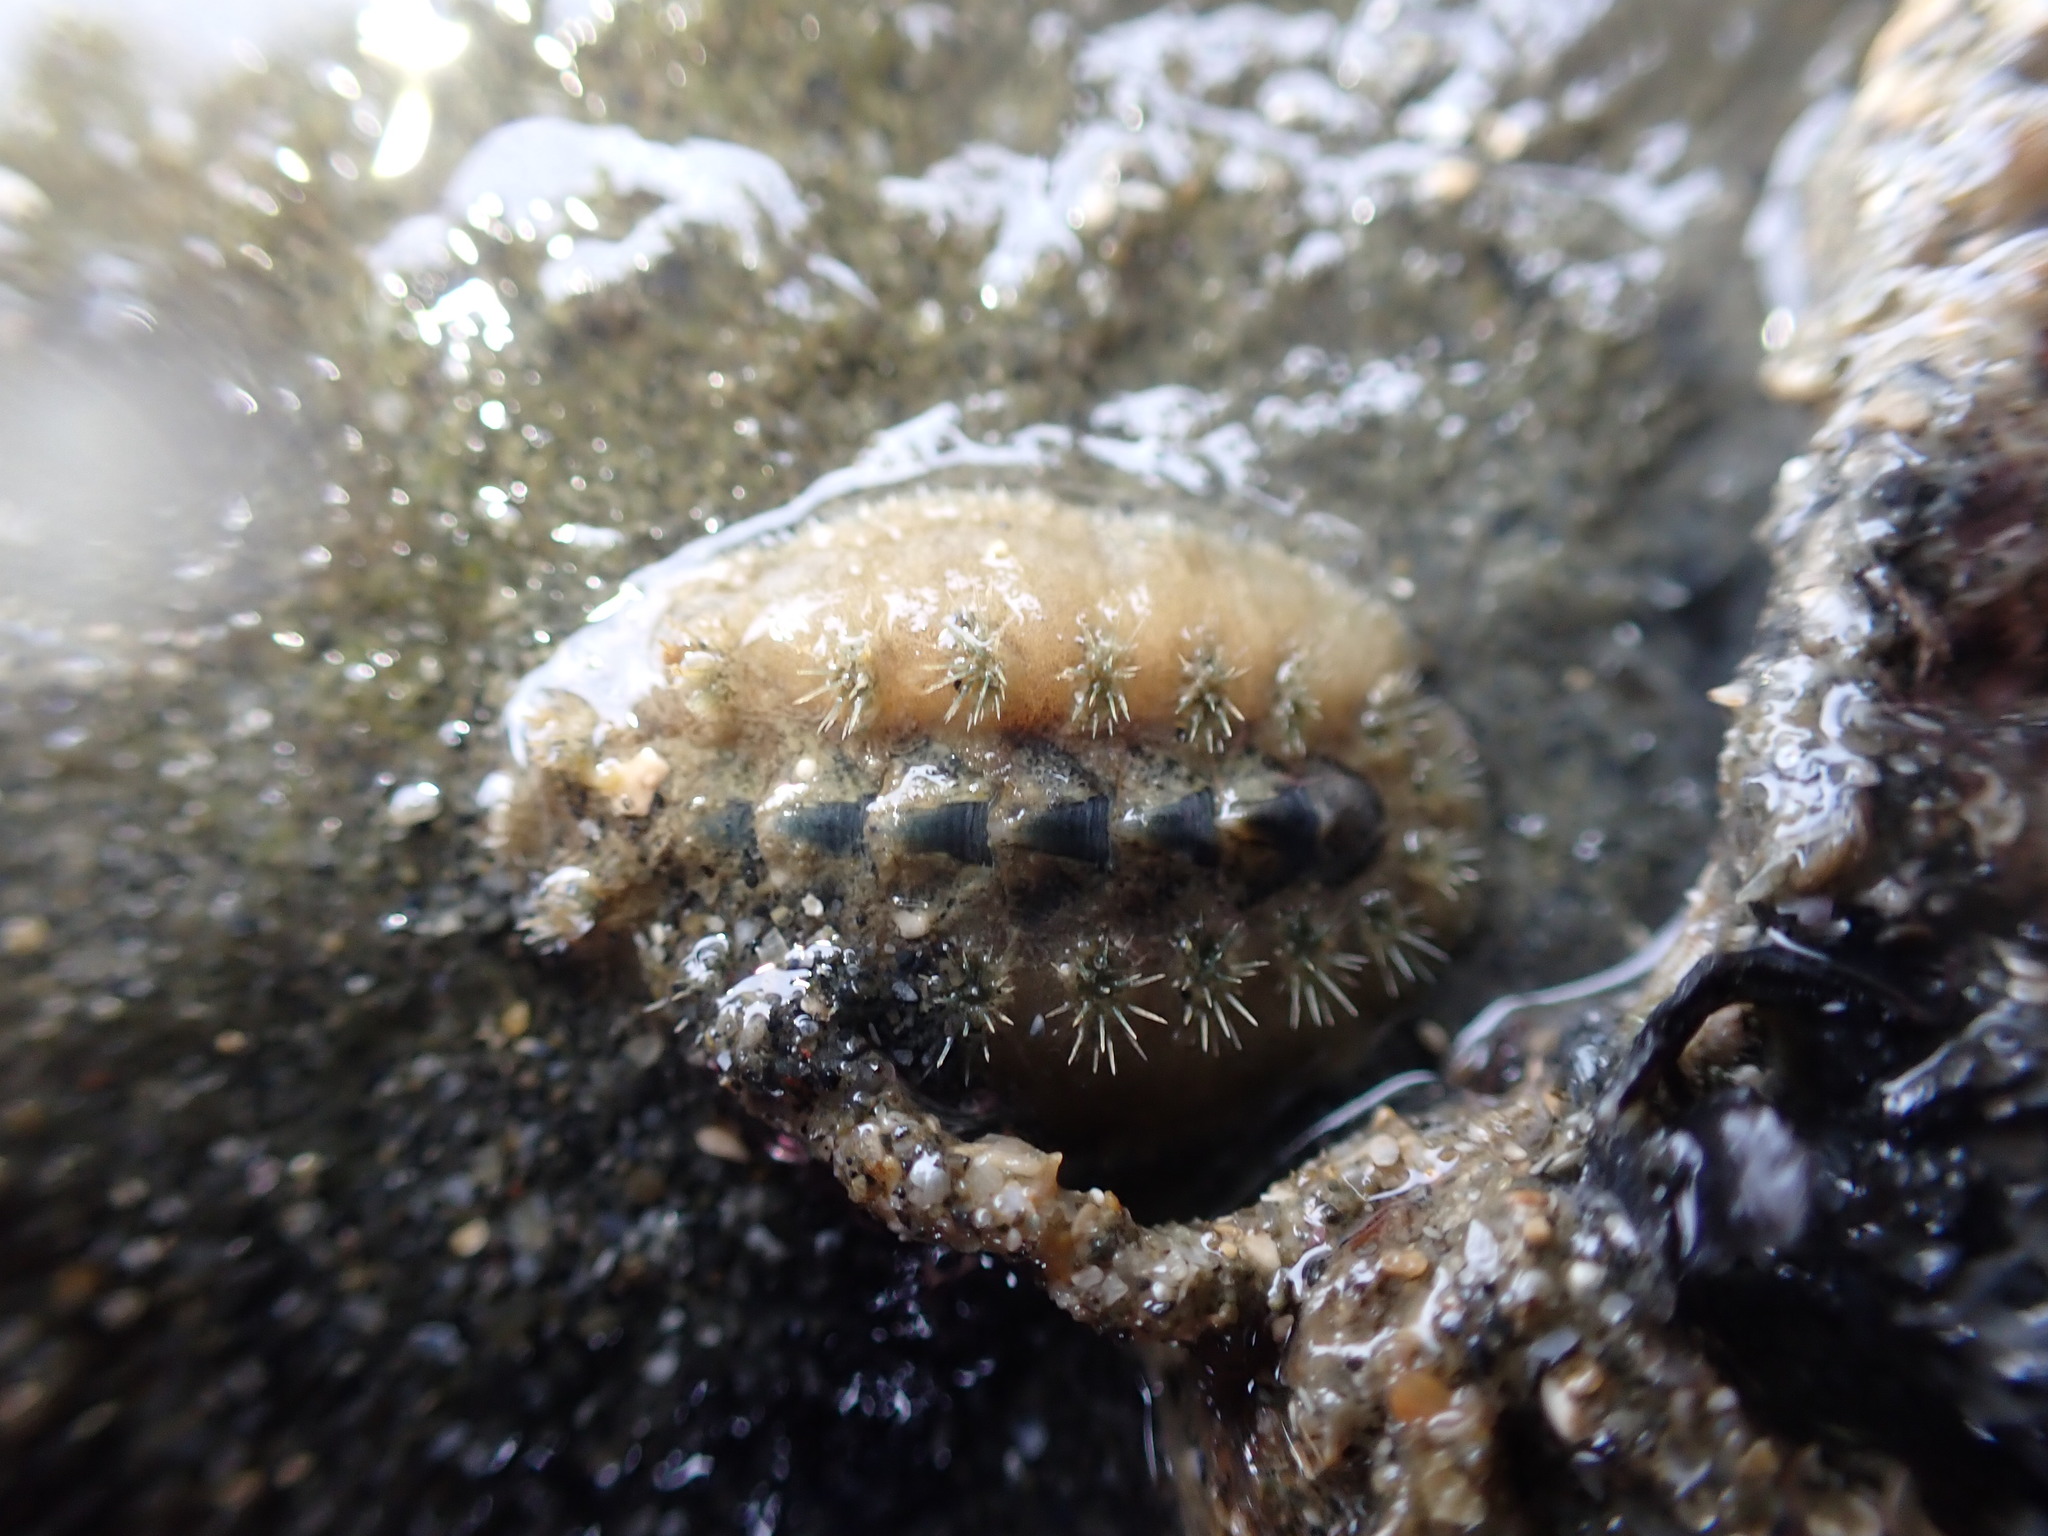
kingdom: Animalia
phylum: Mollusca
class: Polyplacophora
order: Chitonida
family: Acanthochitonidae
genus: Acanthochitona
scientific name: Acanthochitona zelandica
